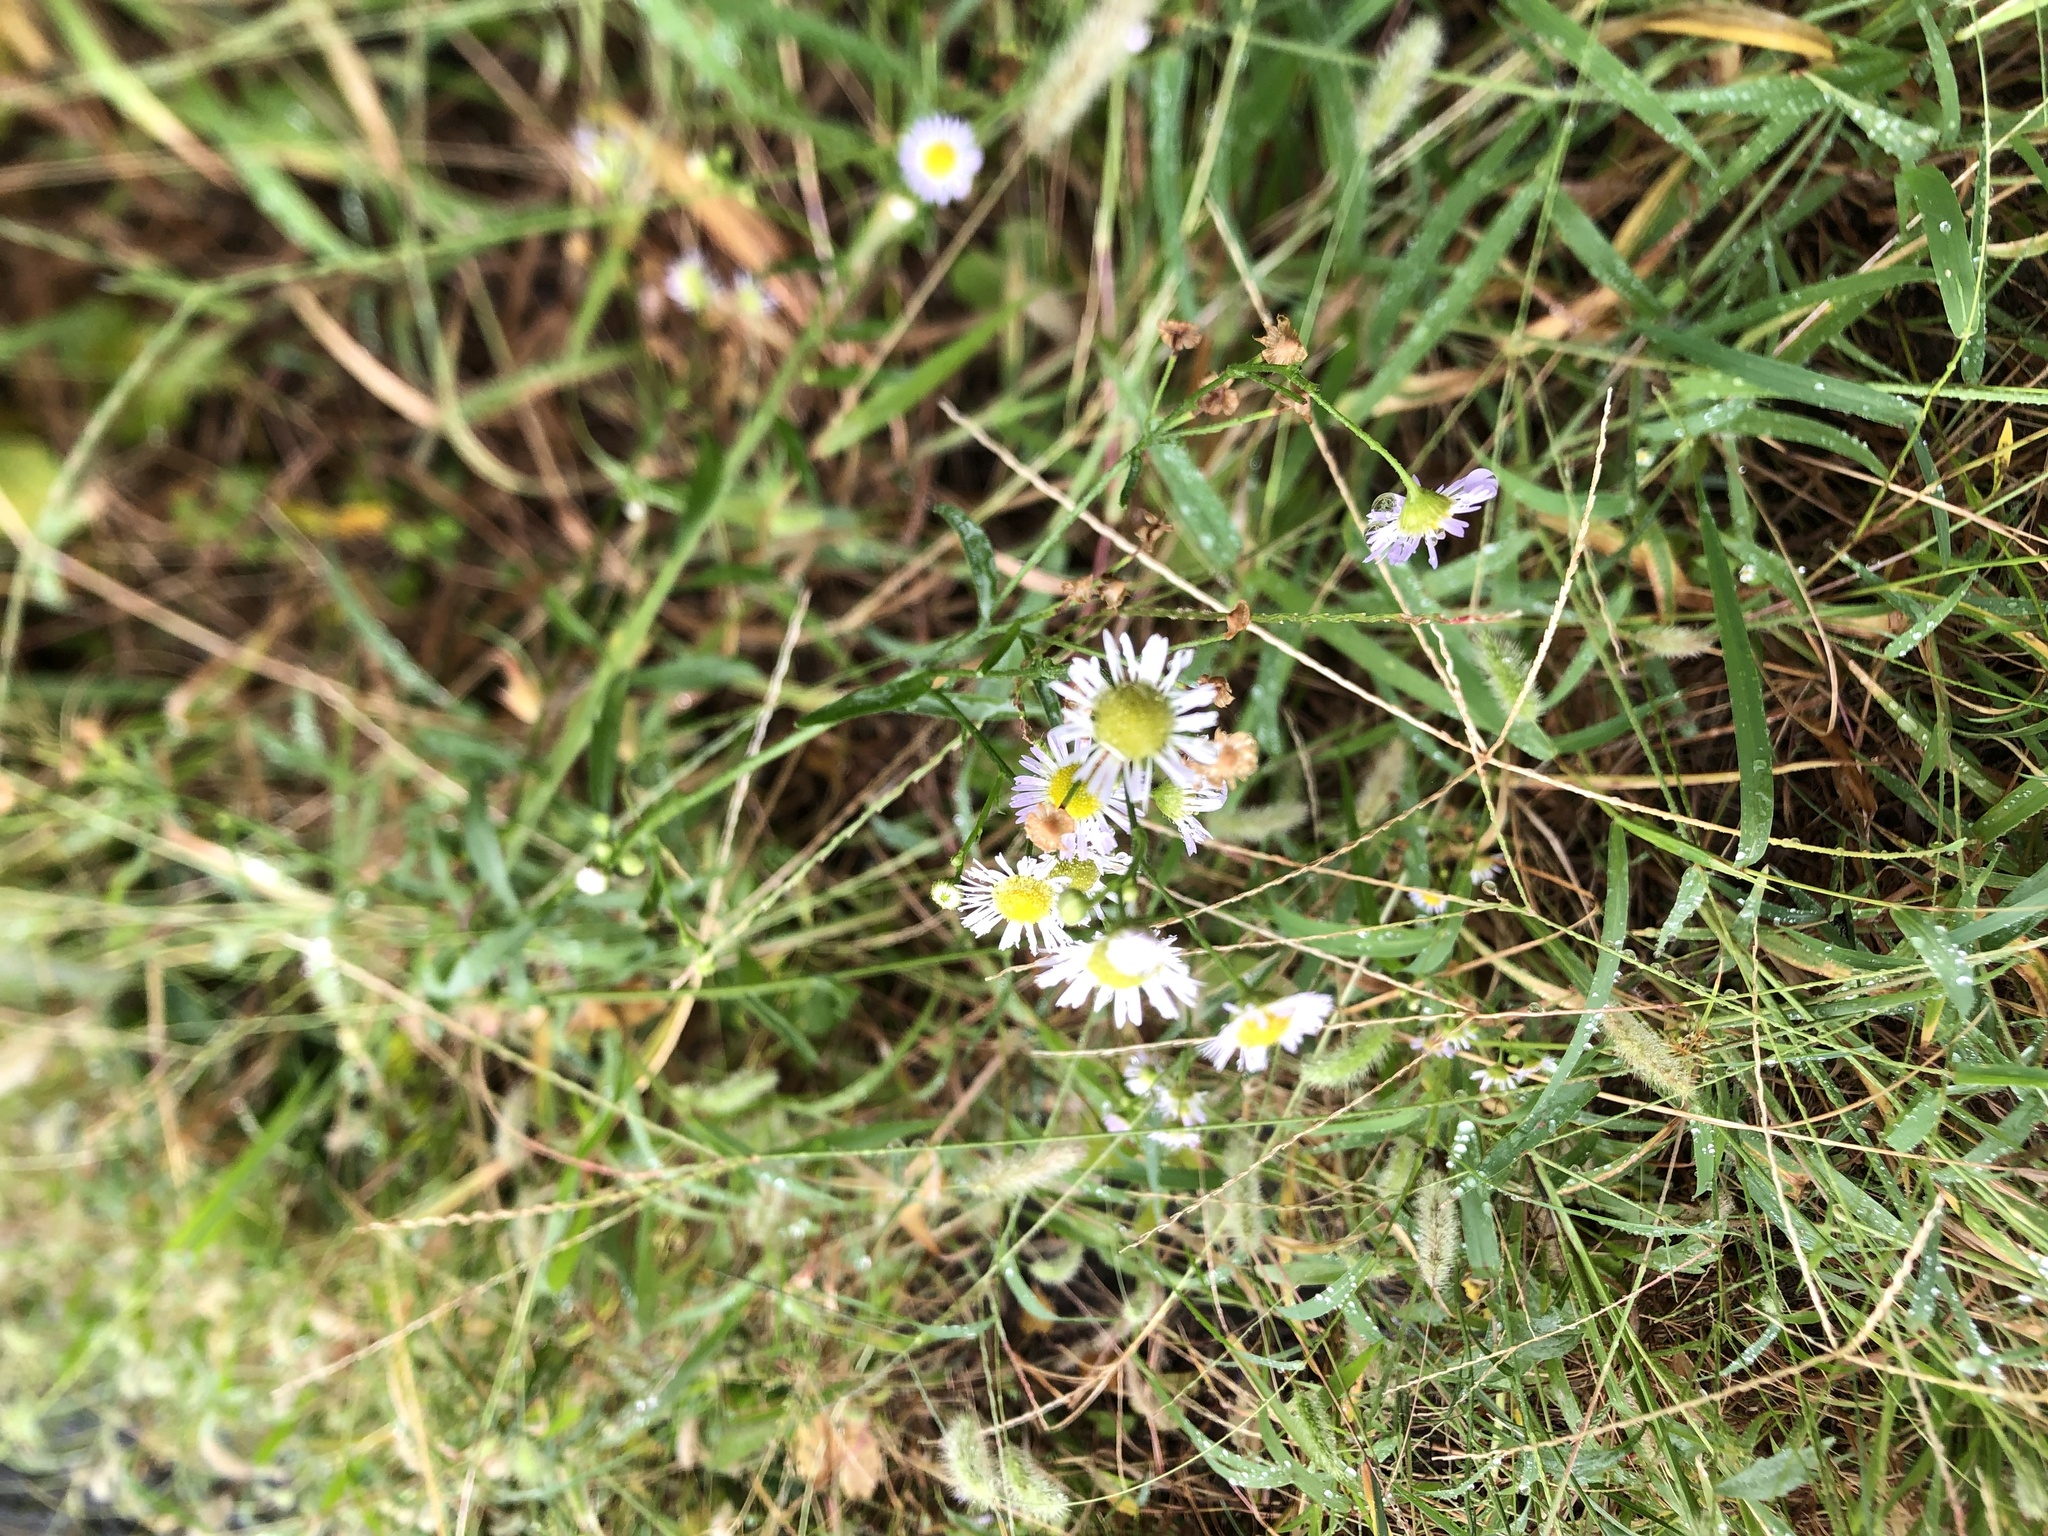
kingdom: Plantae
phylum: Tracheophyta
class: Magnoliopsida
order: Asterales
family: Asteraceae
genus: Erigeron
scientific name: Erigeron annuus
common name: Tall fleabane
